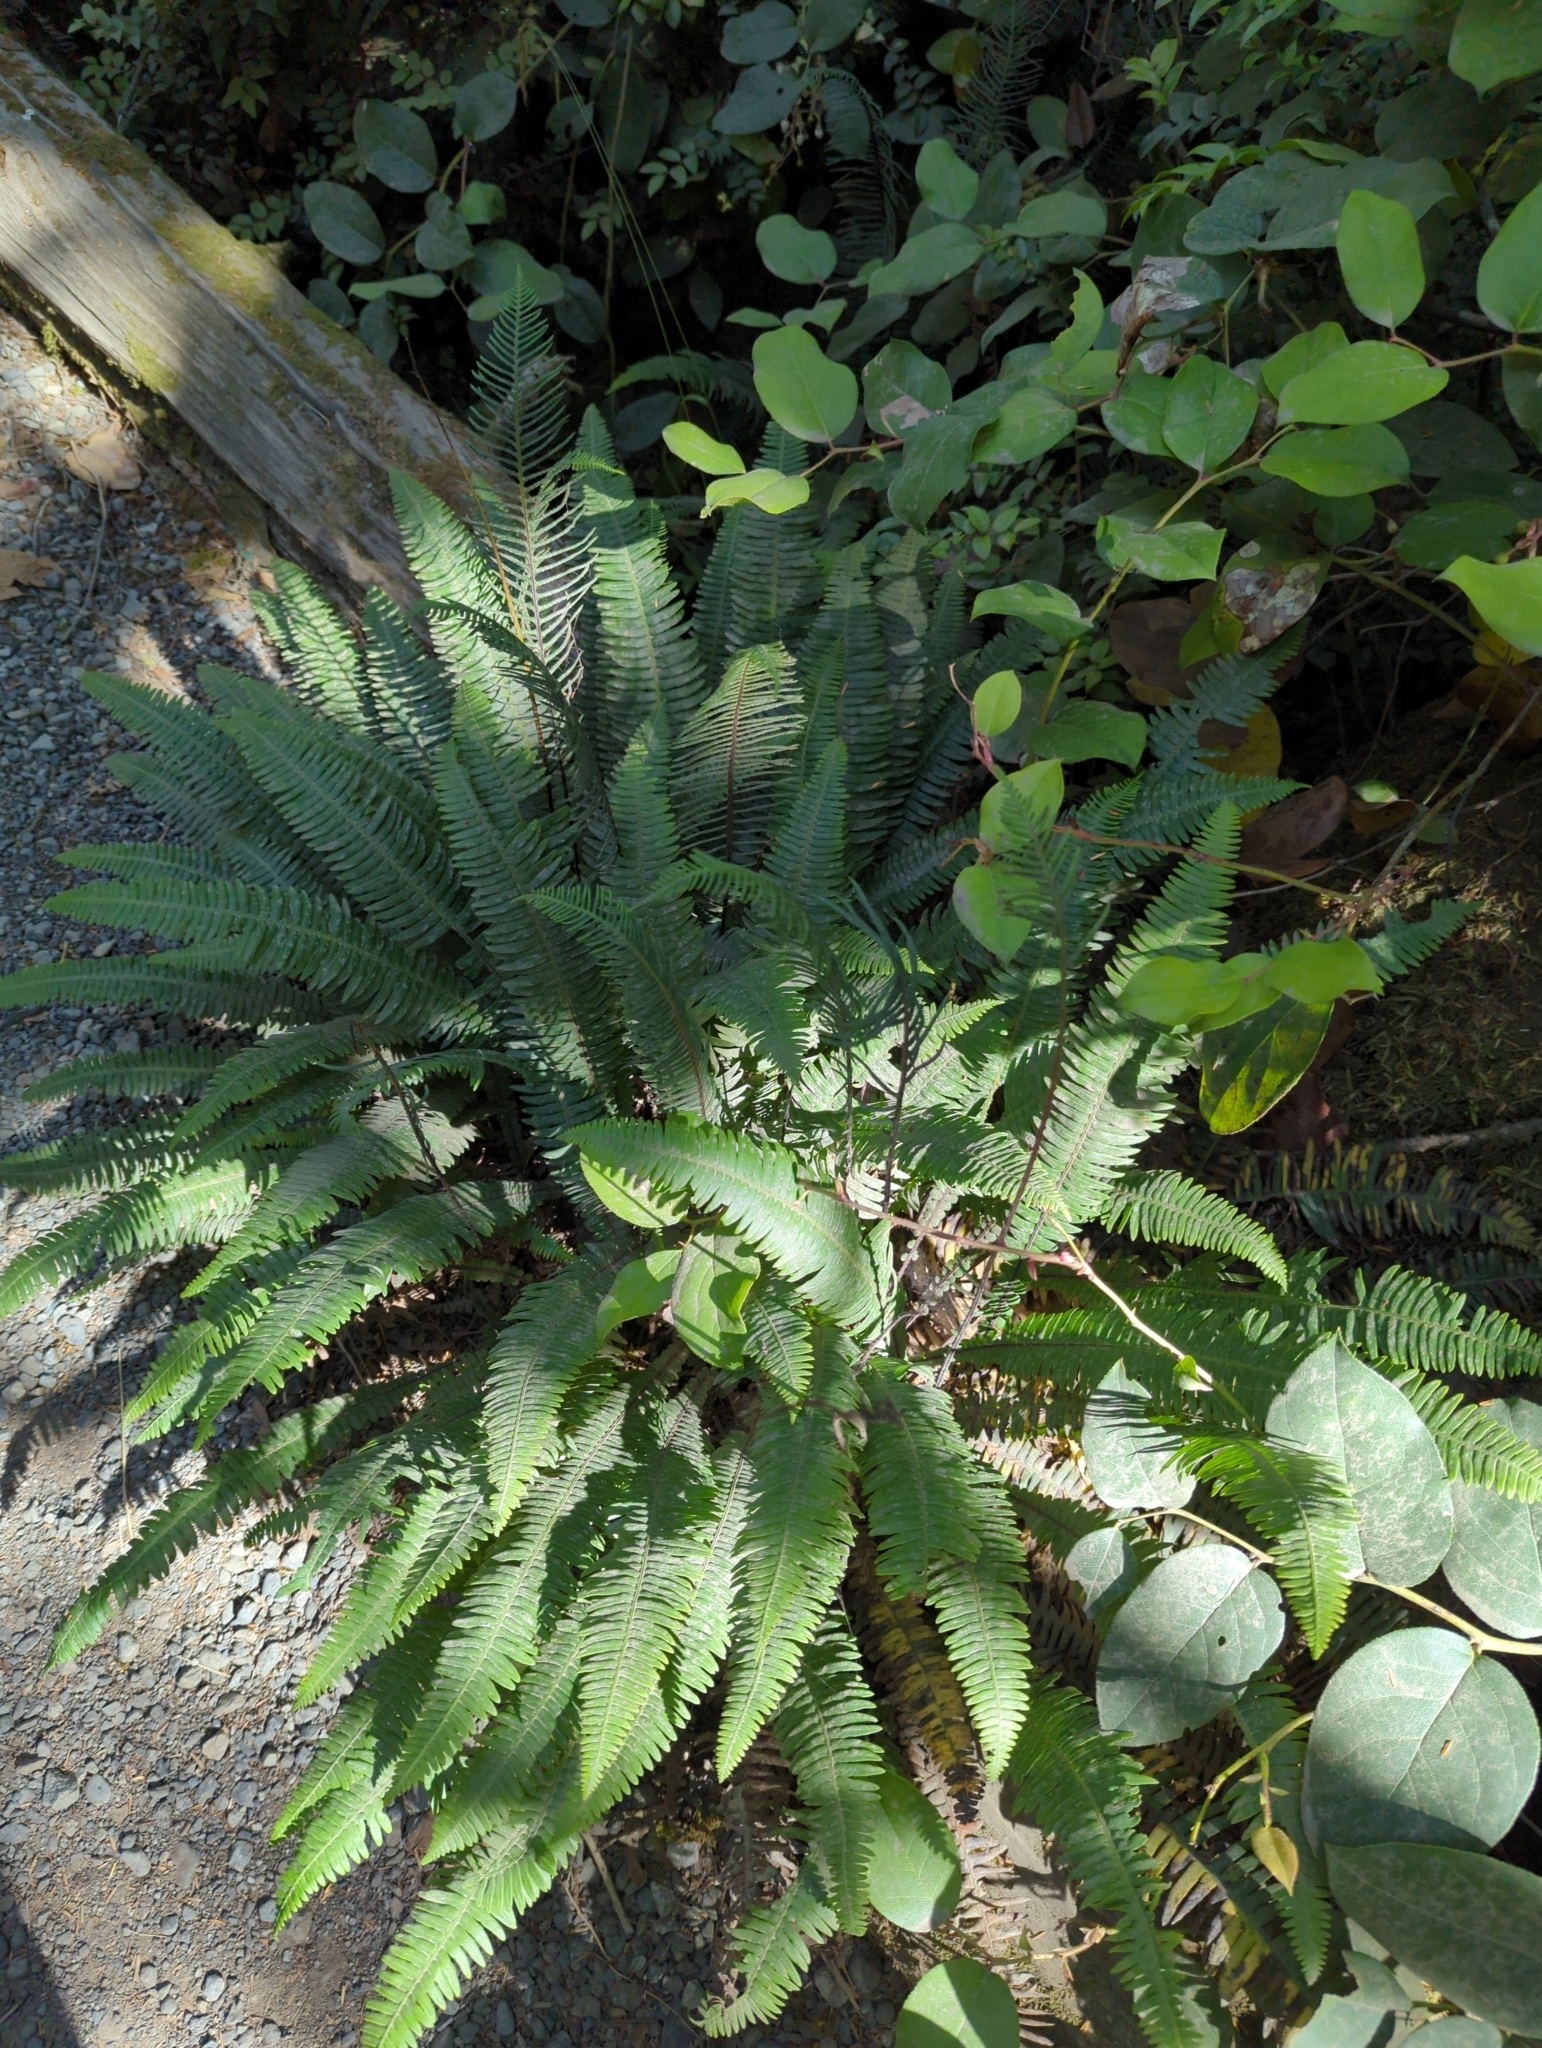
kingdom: Plantae
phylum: Tracheophyta
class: Polypodiopsida
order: Polypodiales
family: Blechnaceae
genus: Struthiopteris
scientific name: Struthiopteris spicant
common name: Deer fern
